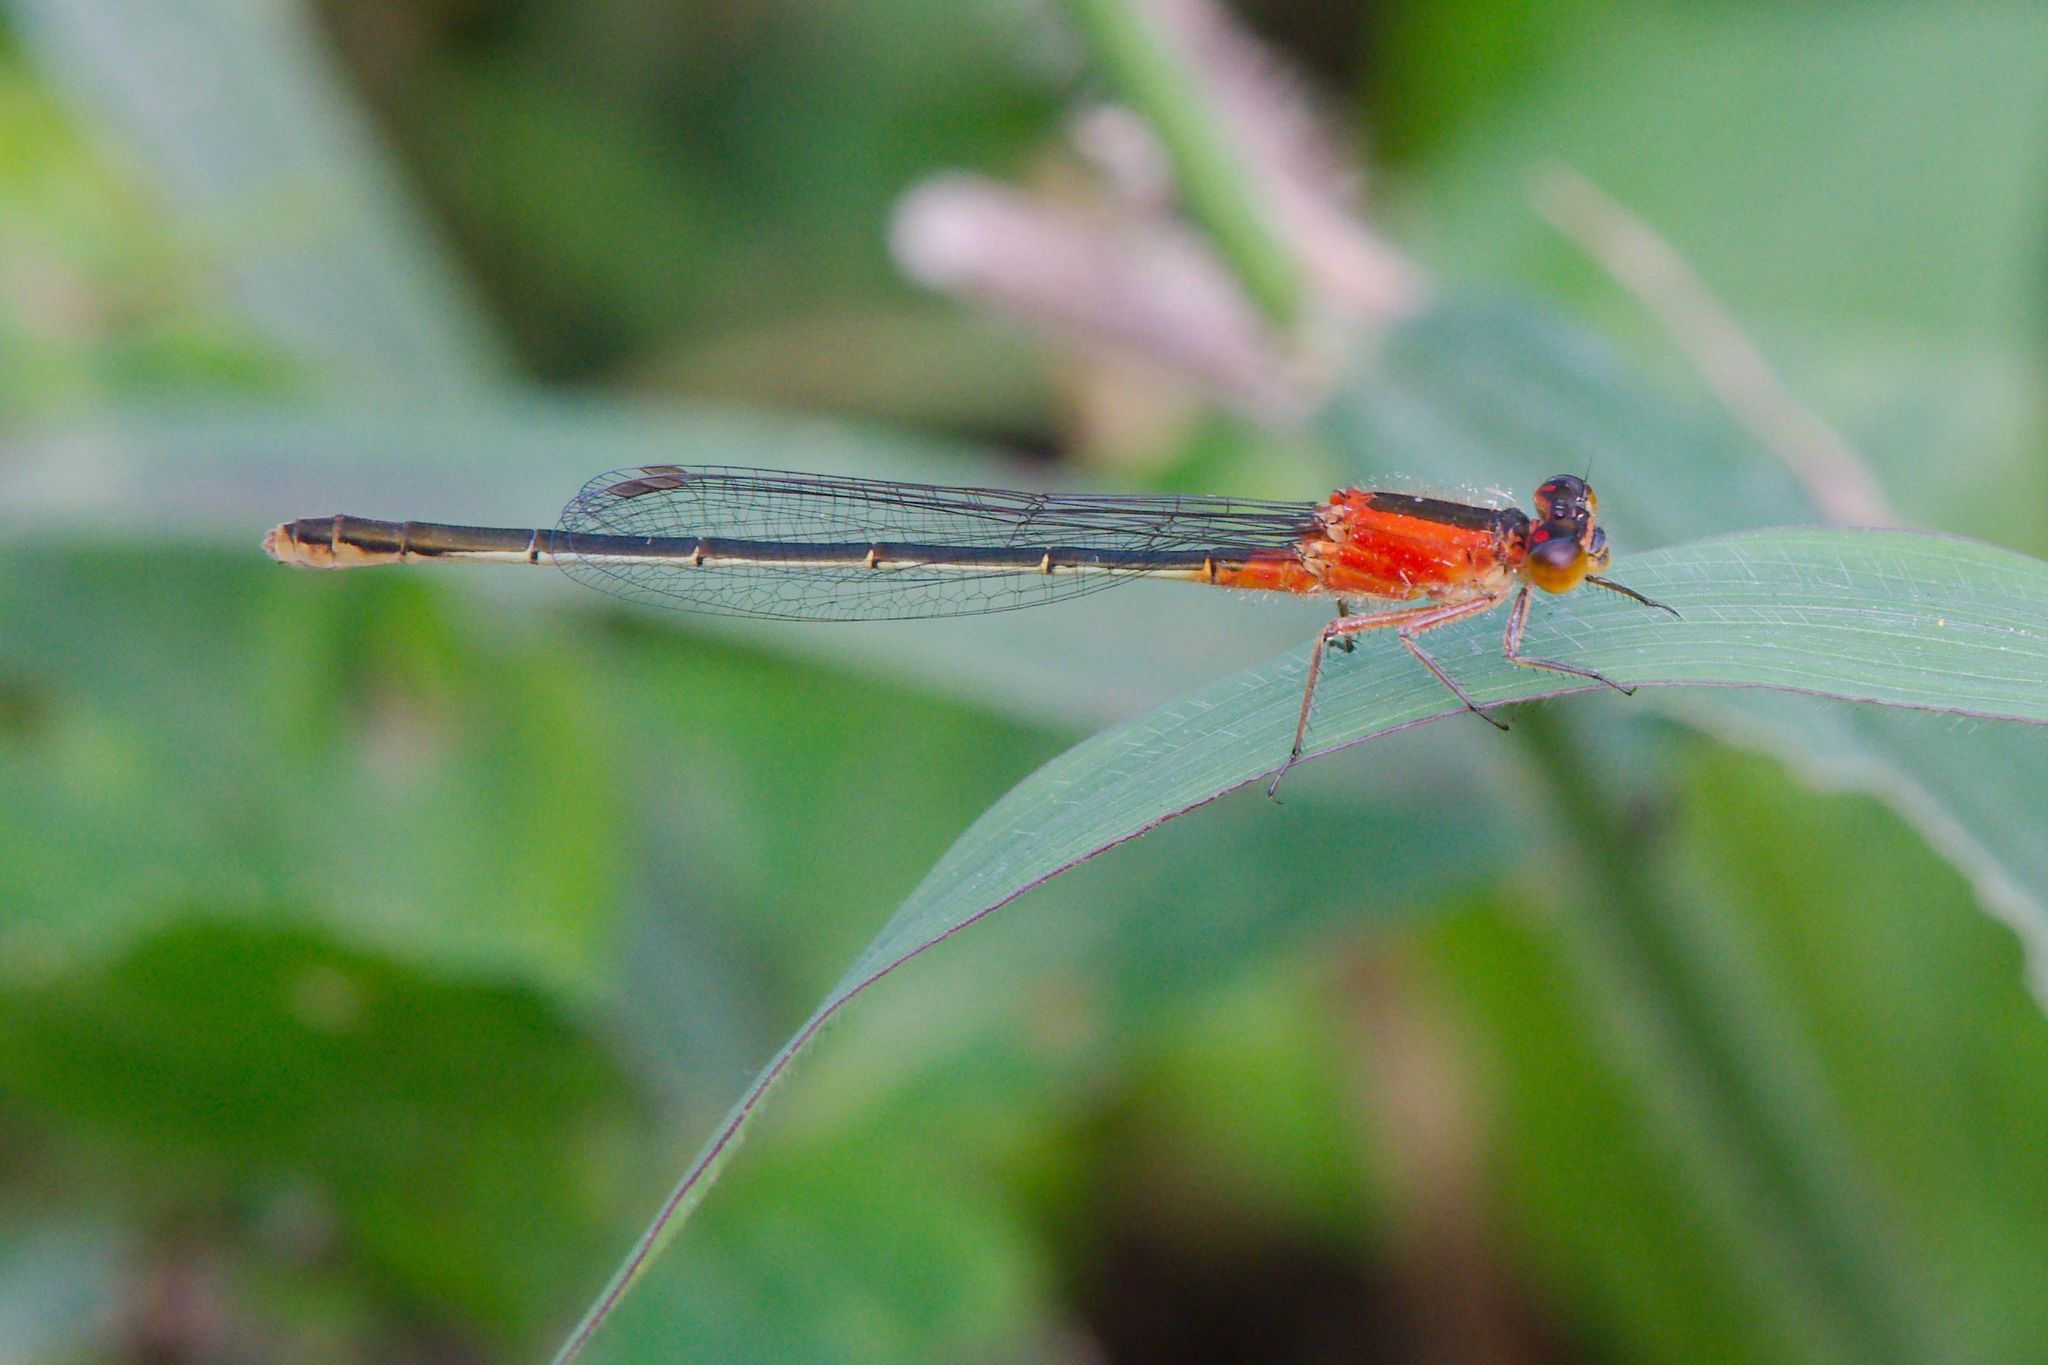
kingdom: Animalia
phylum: Arthropoda
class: Insecta
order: Odonata
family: Coenagrionidae
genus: Ischnura
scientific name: Ischnura ramburii
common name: Rambur's forktail
